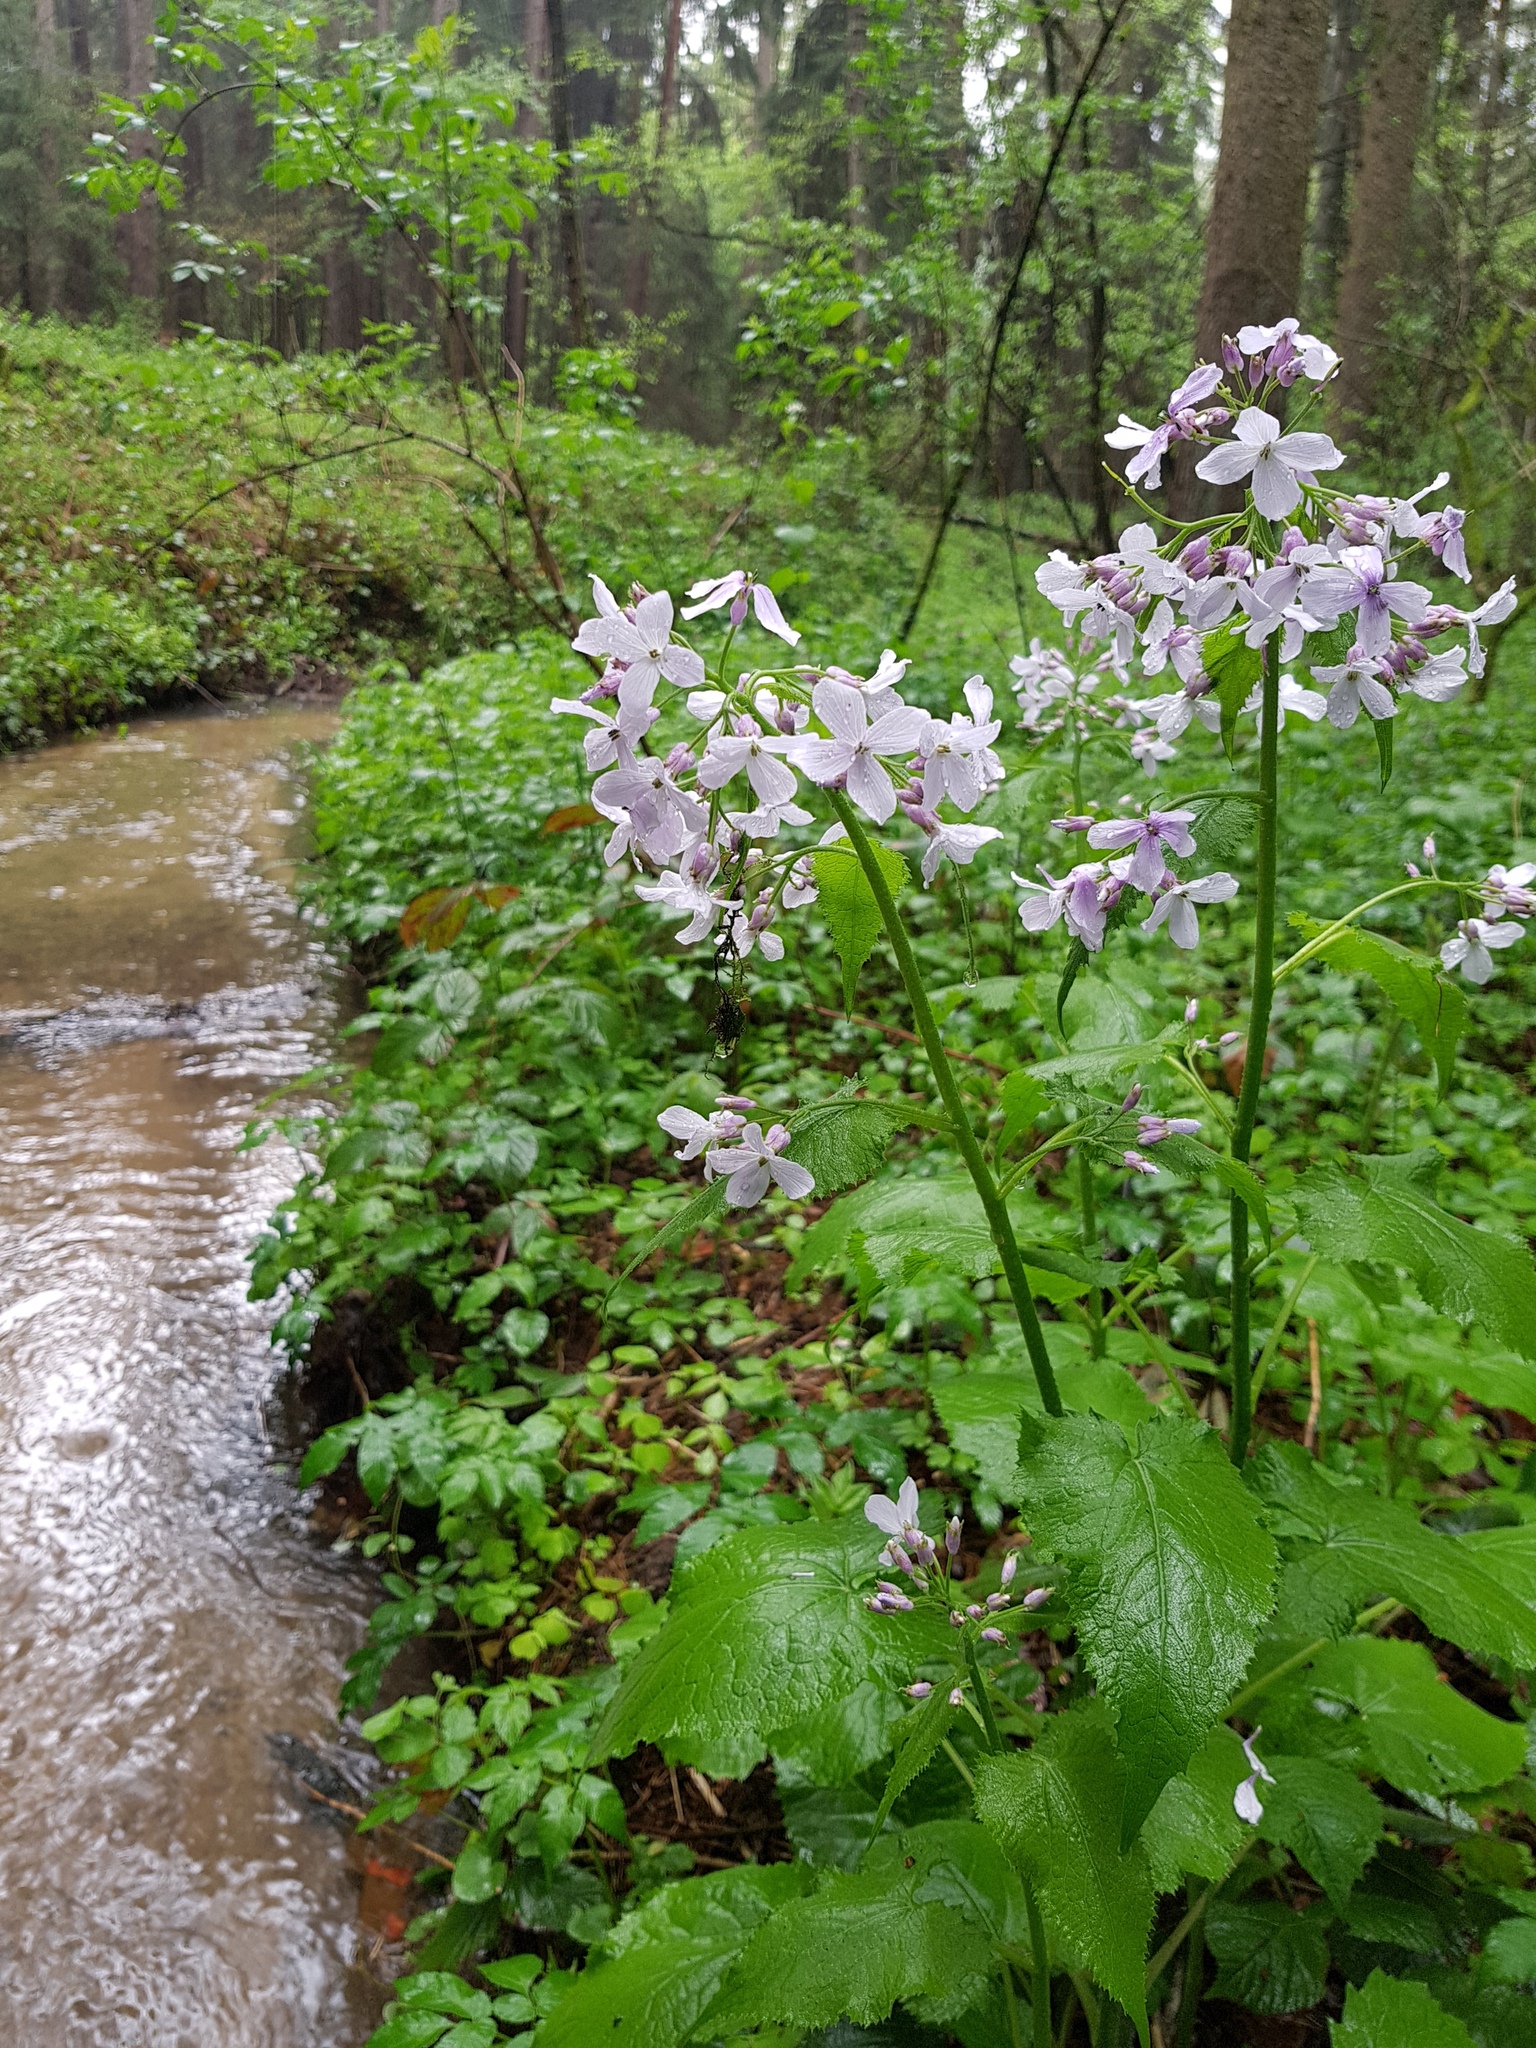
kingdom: Plantae
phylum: Tracheophyta
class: Magnoliopsida
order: Brassicales
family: Brassicaceae
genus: Lunaria
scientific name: Lunaria rediviva
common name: Perennial honesty
